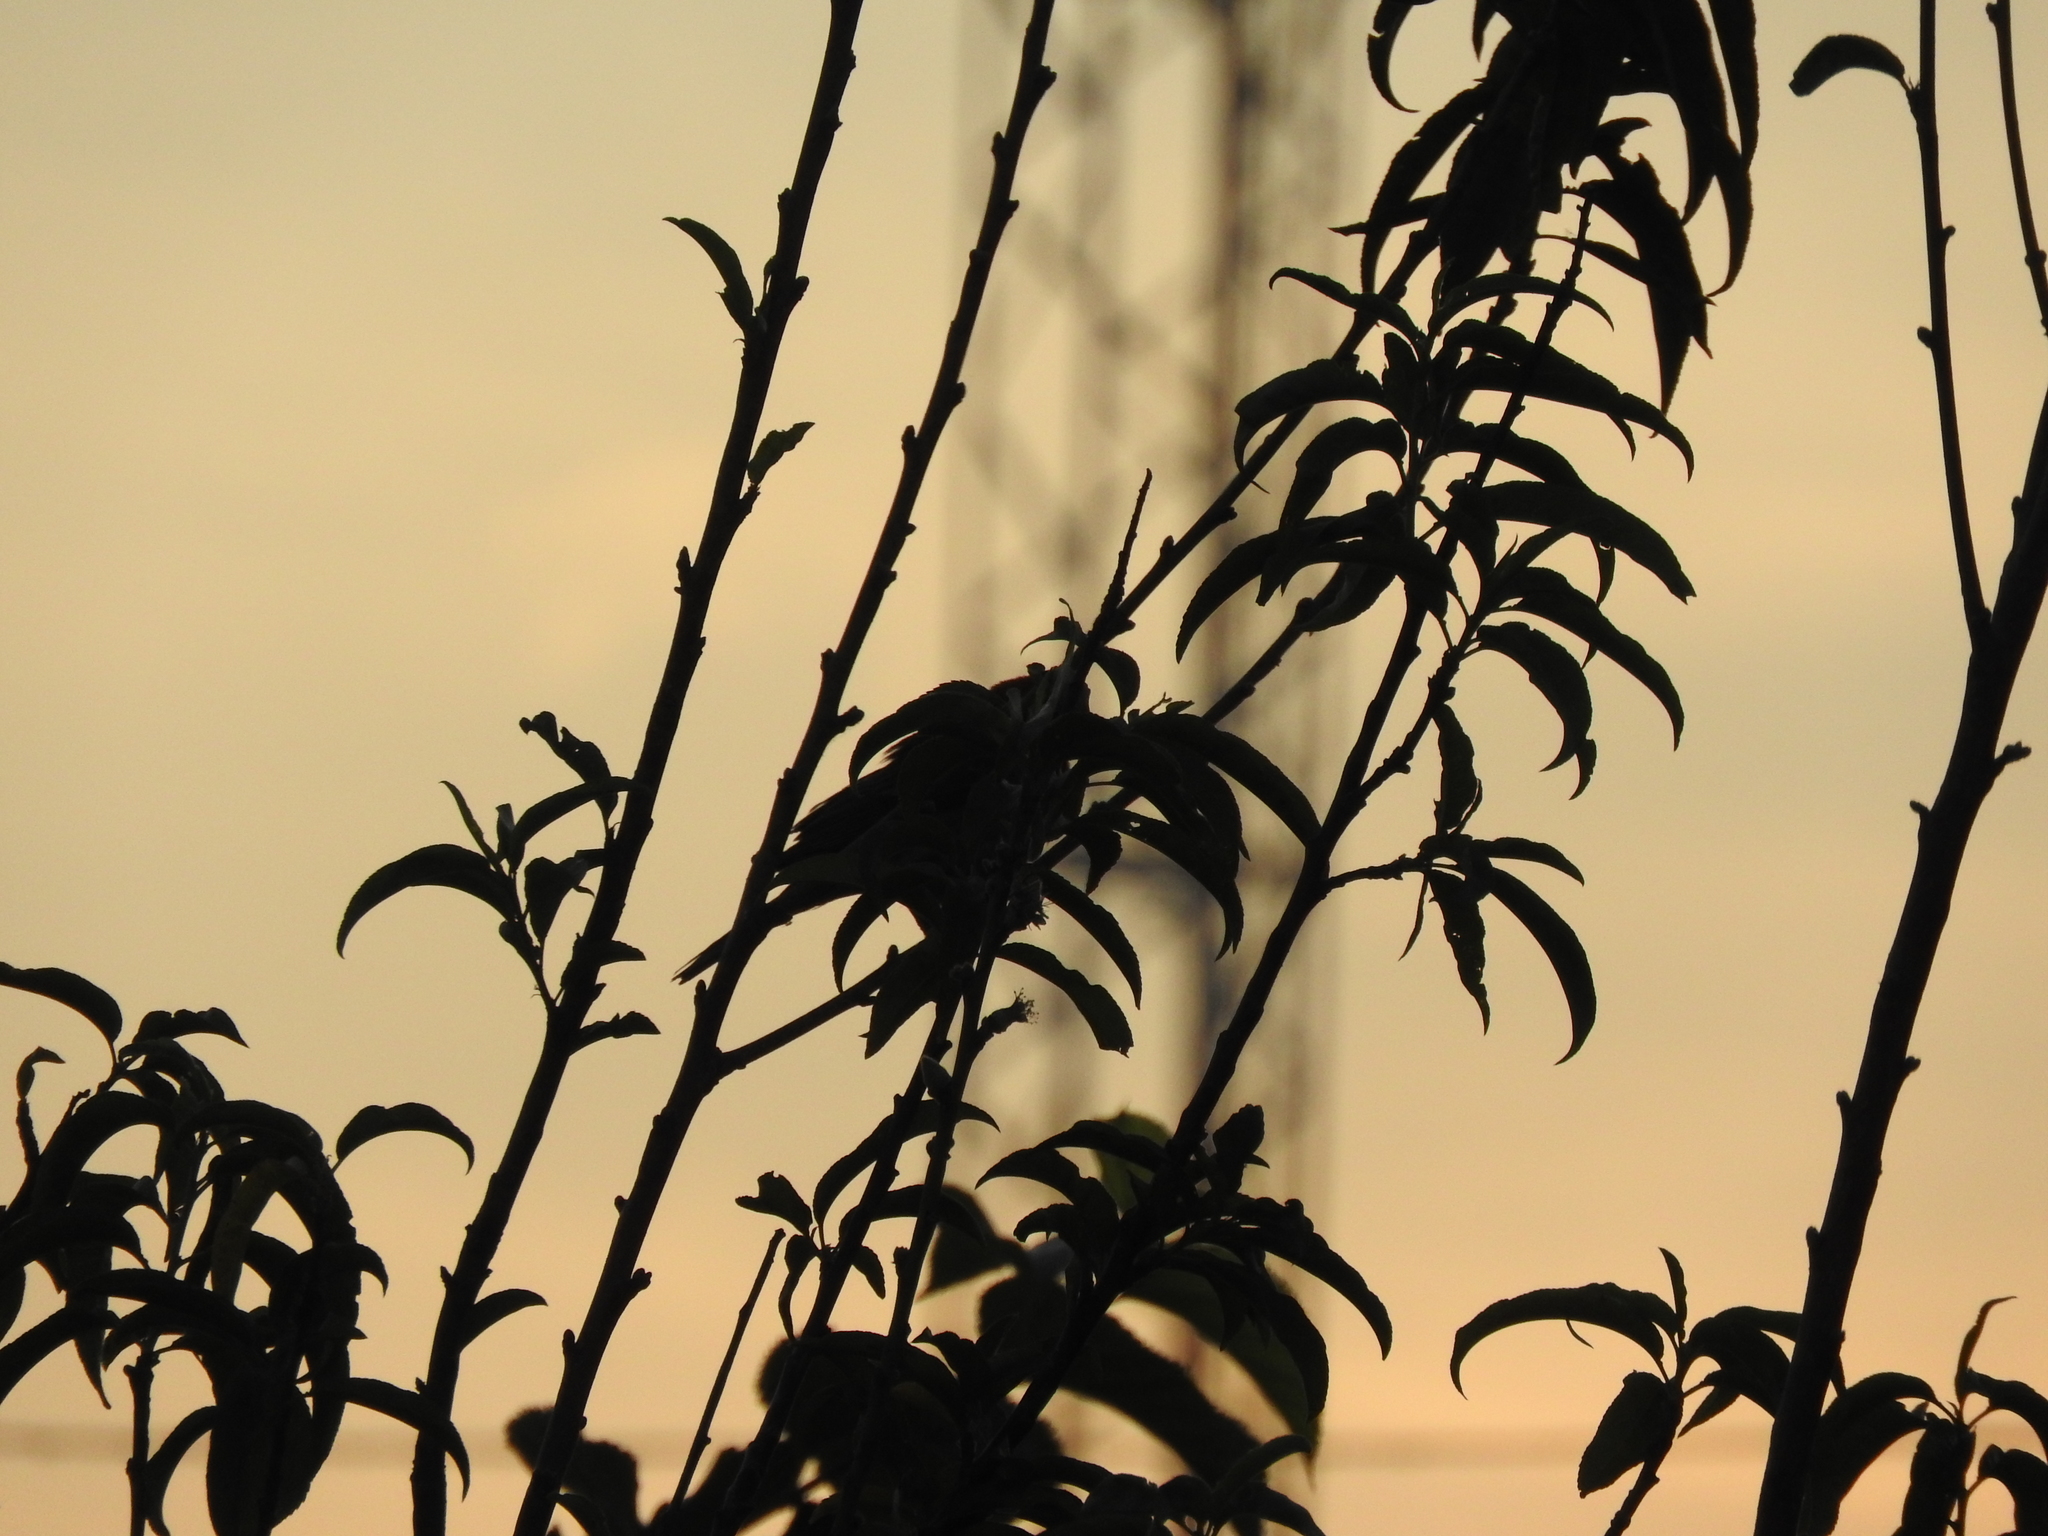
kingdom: Animalia
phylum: Chordata
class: Aves
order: Passeriformes
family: Fringillidae
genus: Haemorhous
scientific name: Haemorhous mexicanus
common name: House finch
